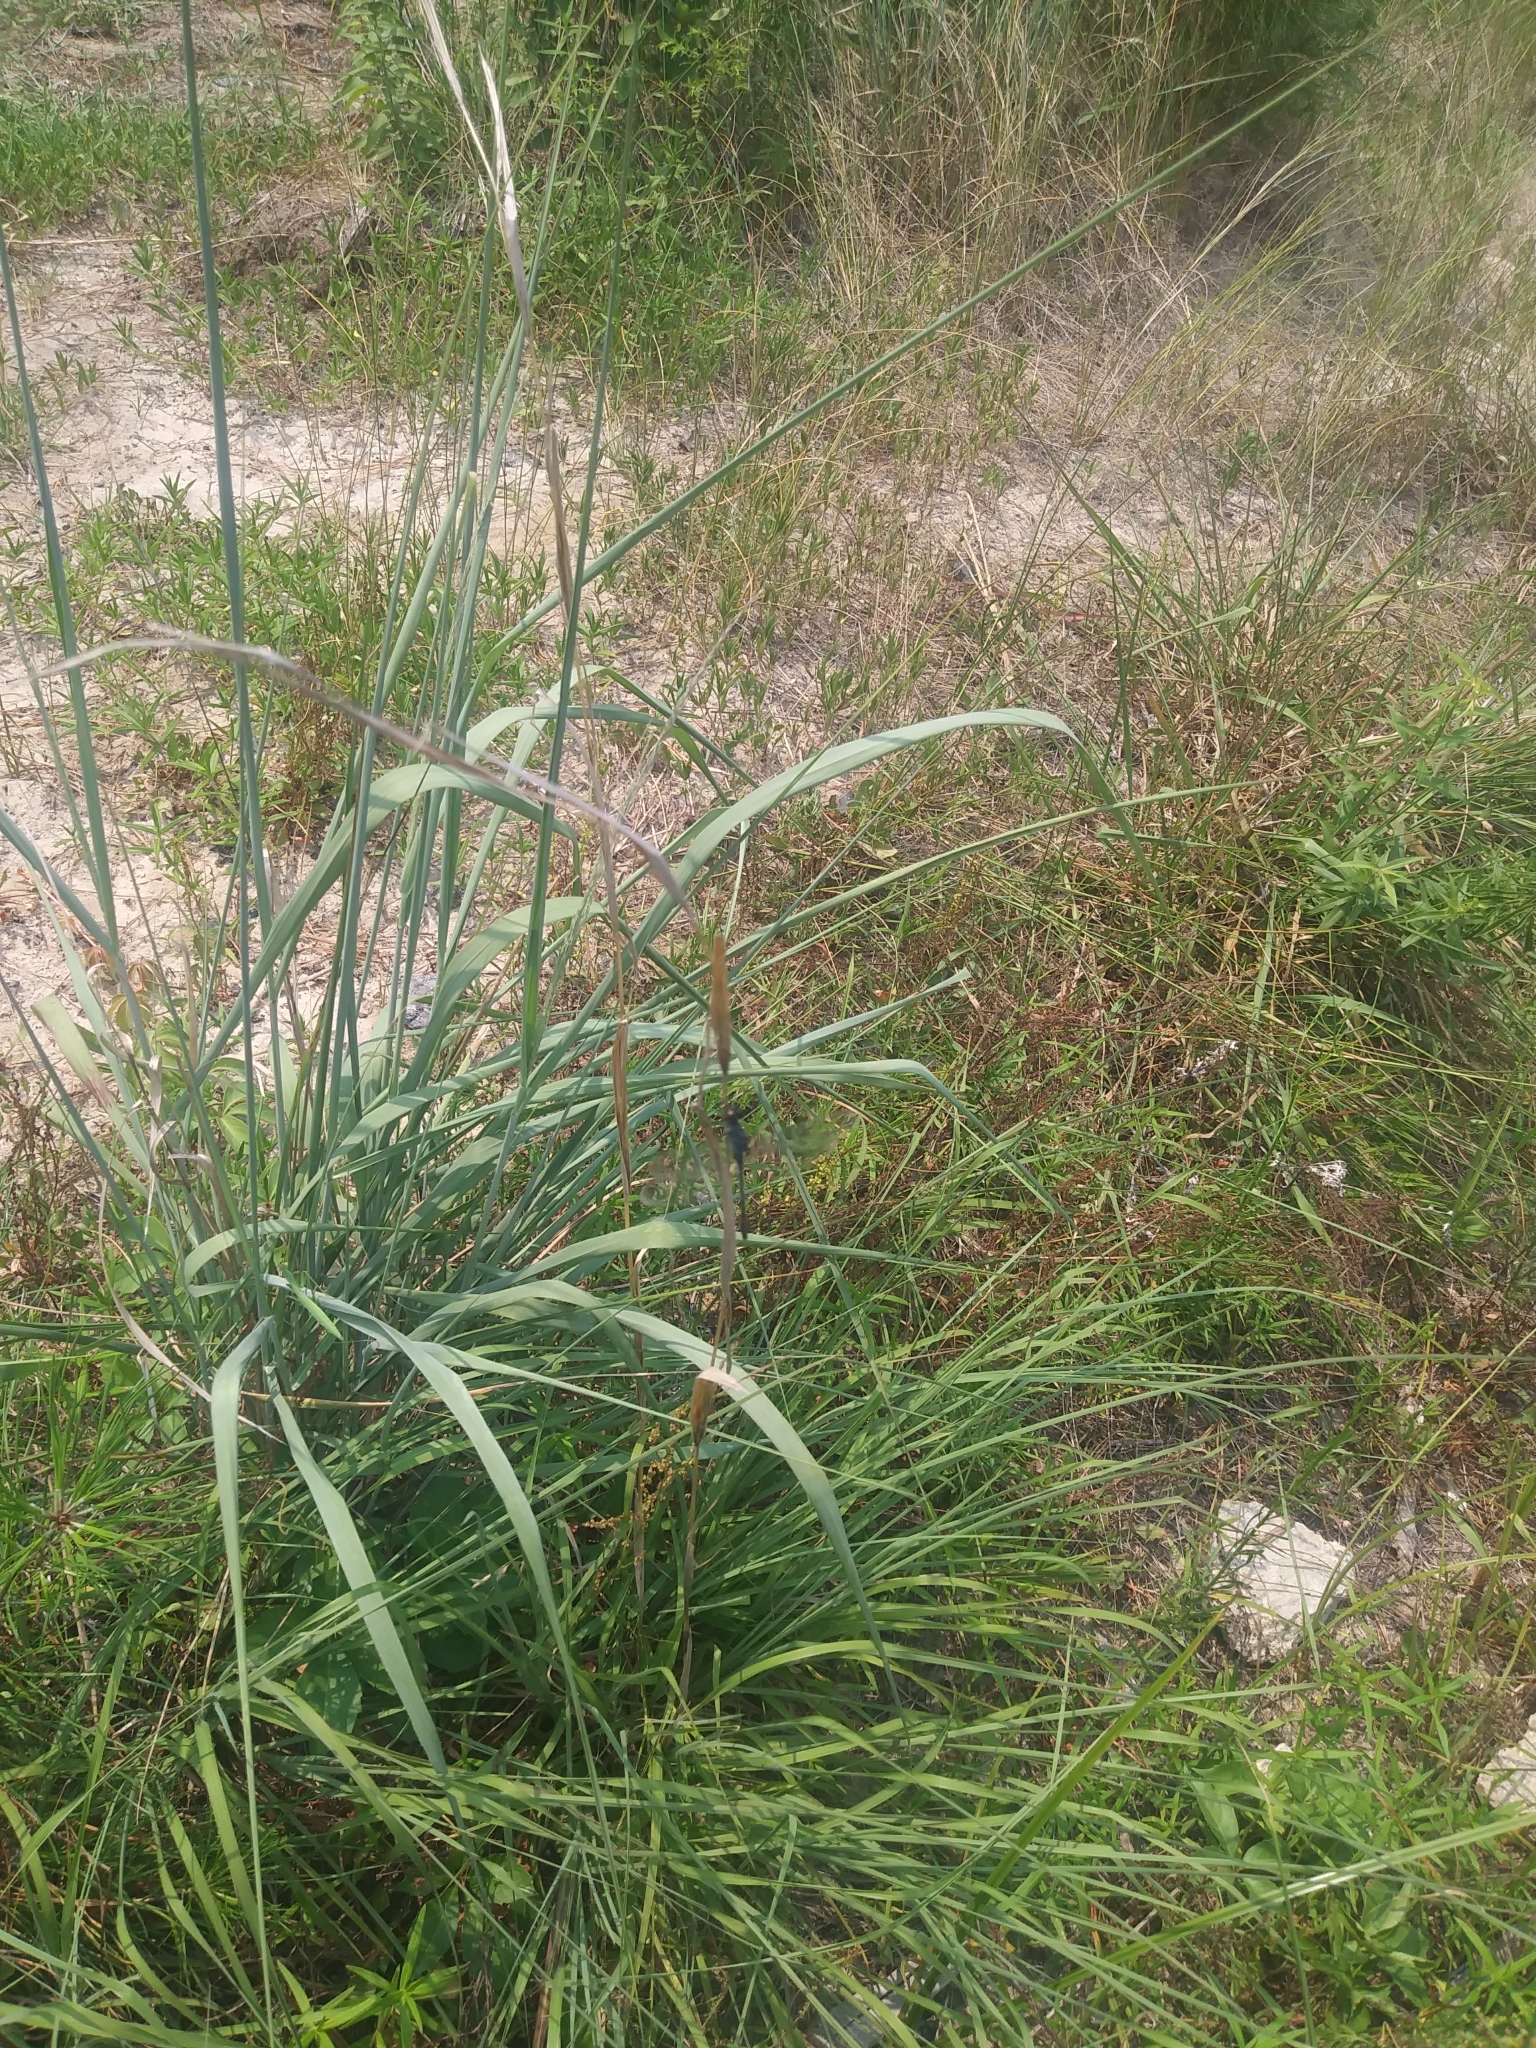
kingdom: Animalia
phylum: Arthropoda
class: Insecta
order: Odonata
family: Libellulidae
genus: Erythrodiplax
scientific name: Erythrodiplax berenice
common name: Seaside dragonlet
